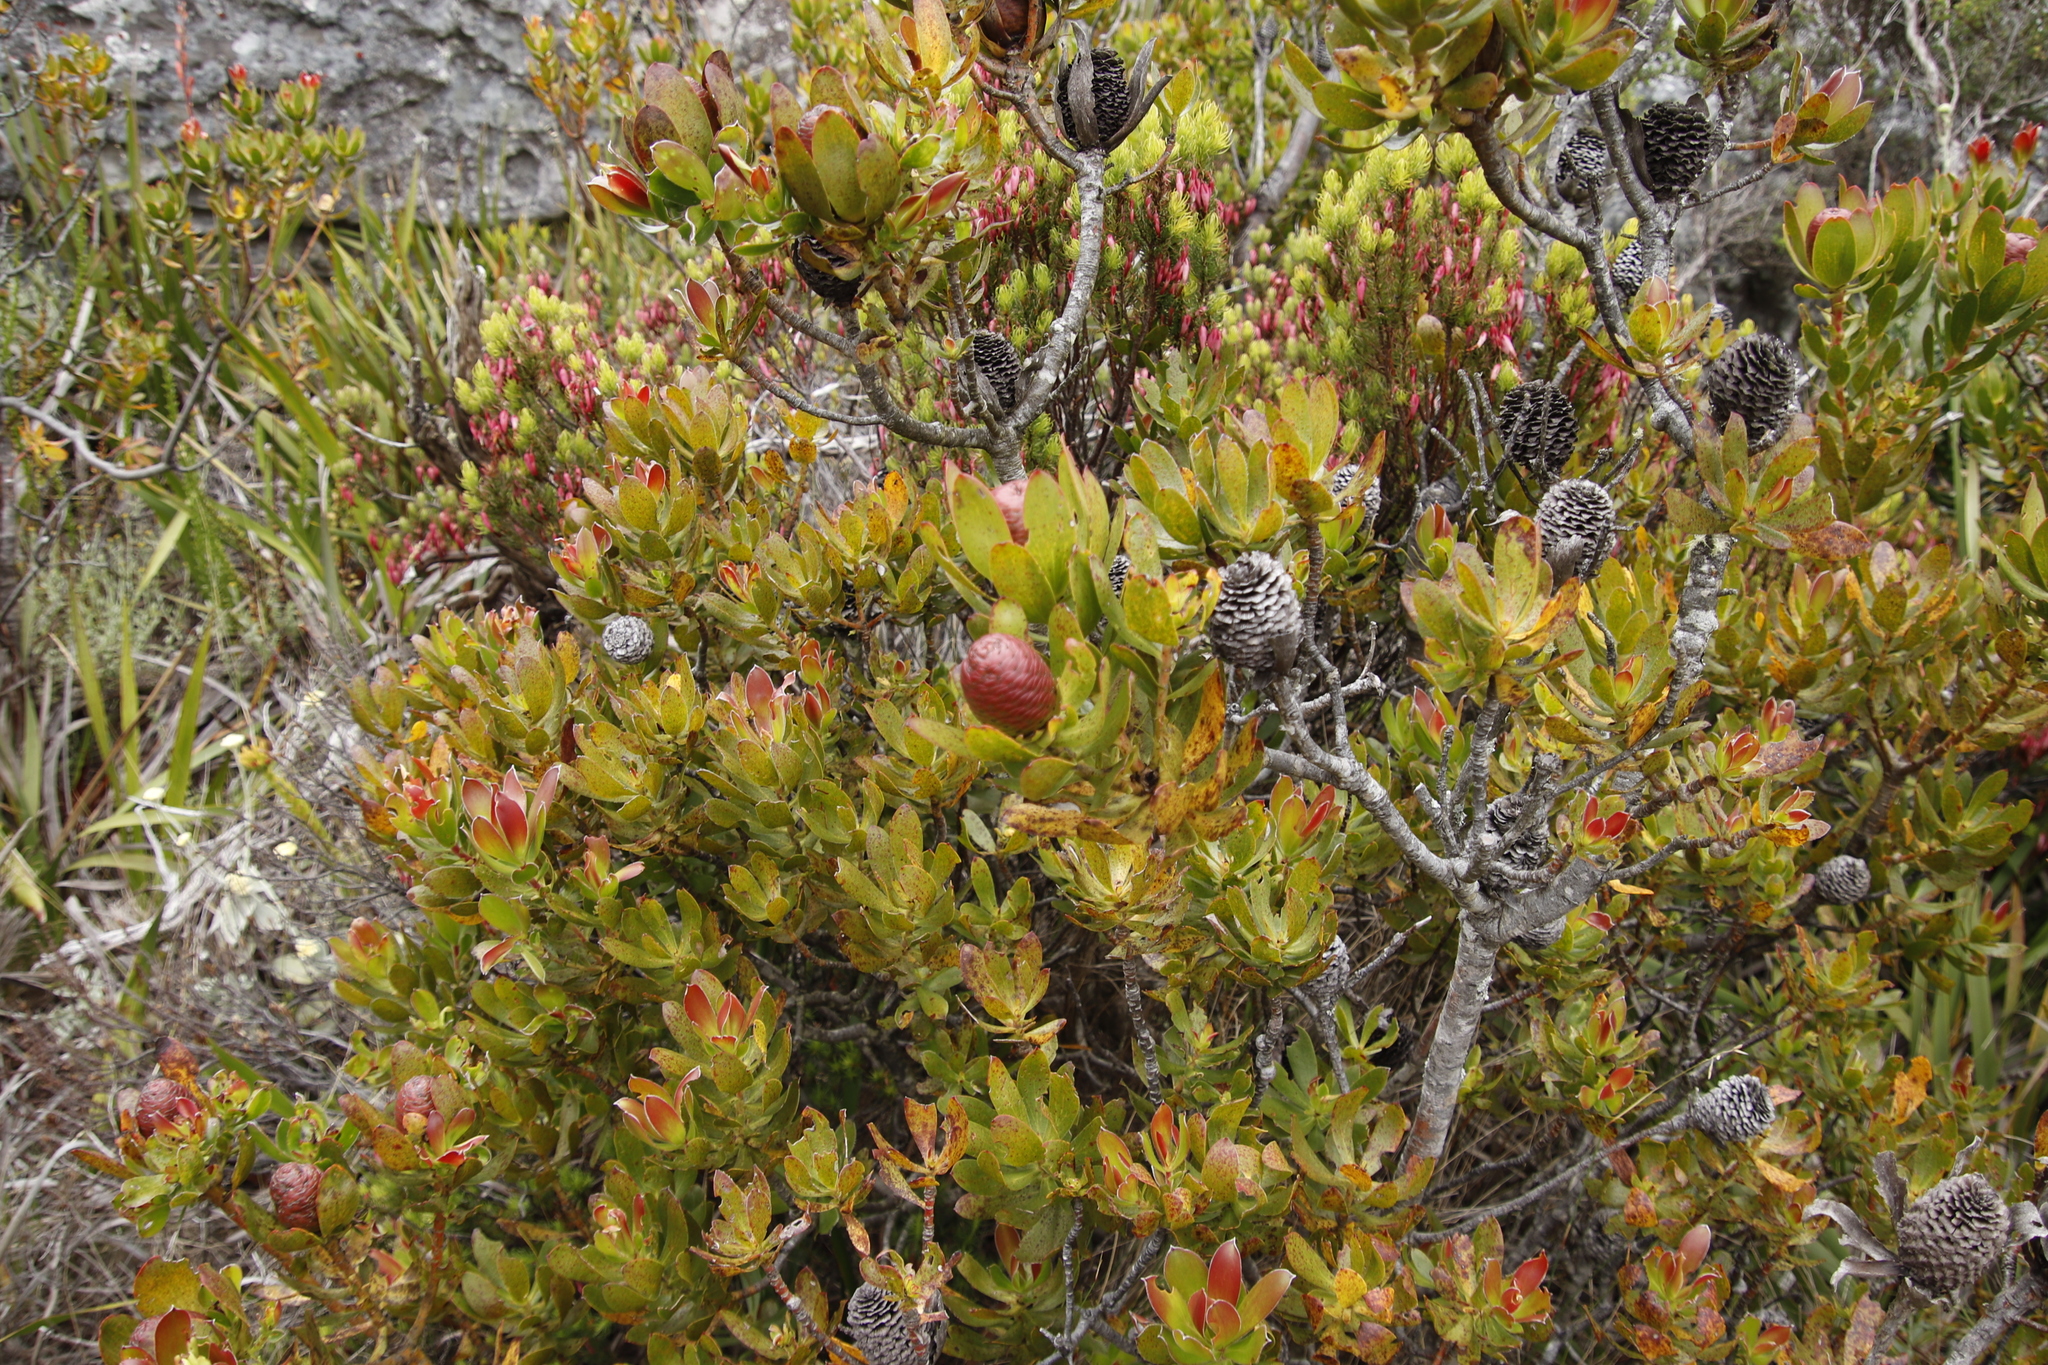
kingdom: Plantae
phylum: Tracheophyta
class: Magnoliopsida
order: Proteales
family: Proteaceae
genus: Leucadendron
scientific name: Leucadendron strobilinum
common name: Mountain rose
